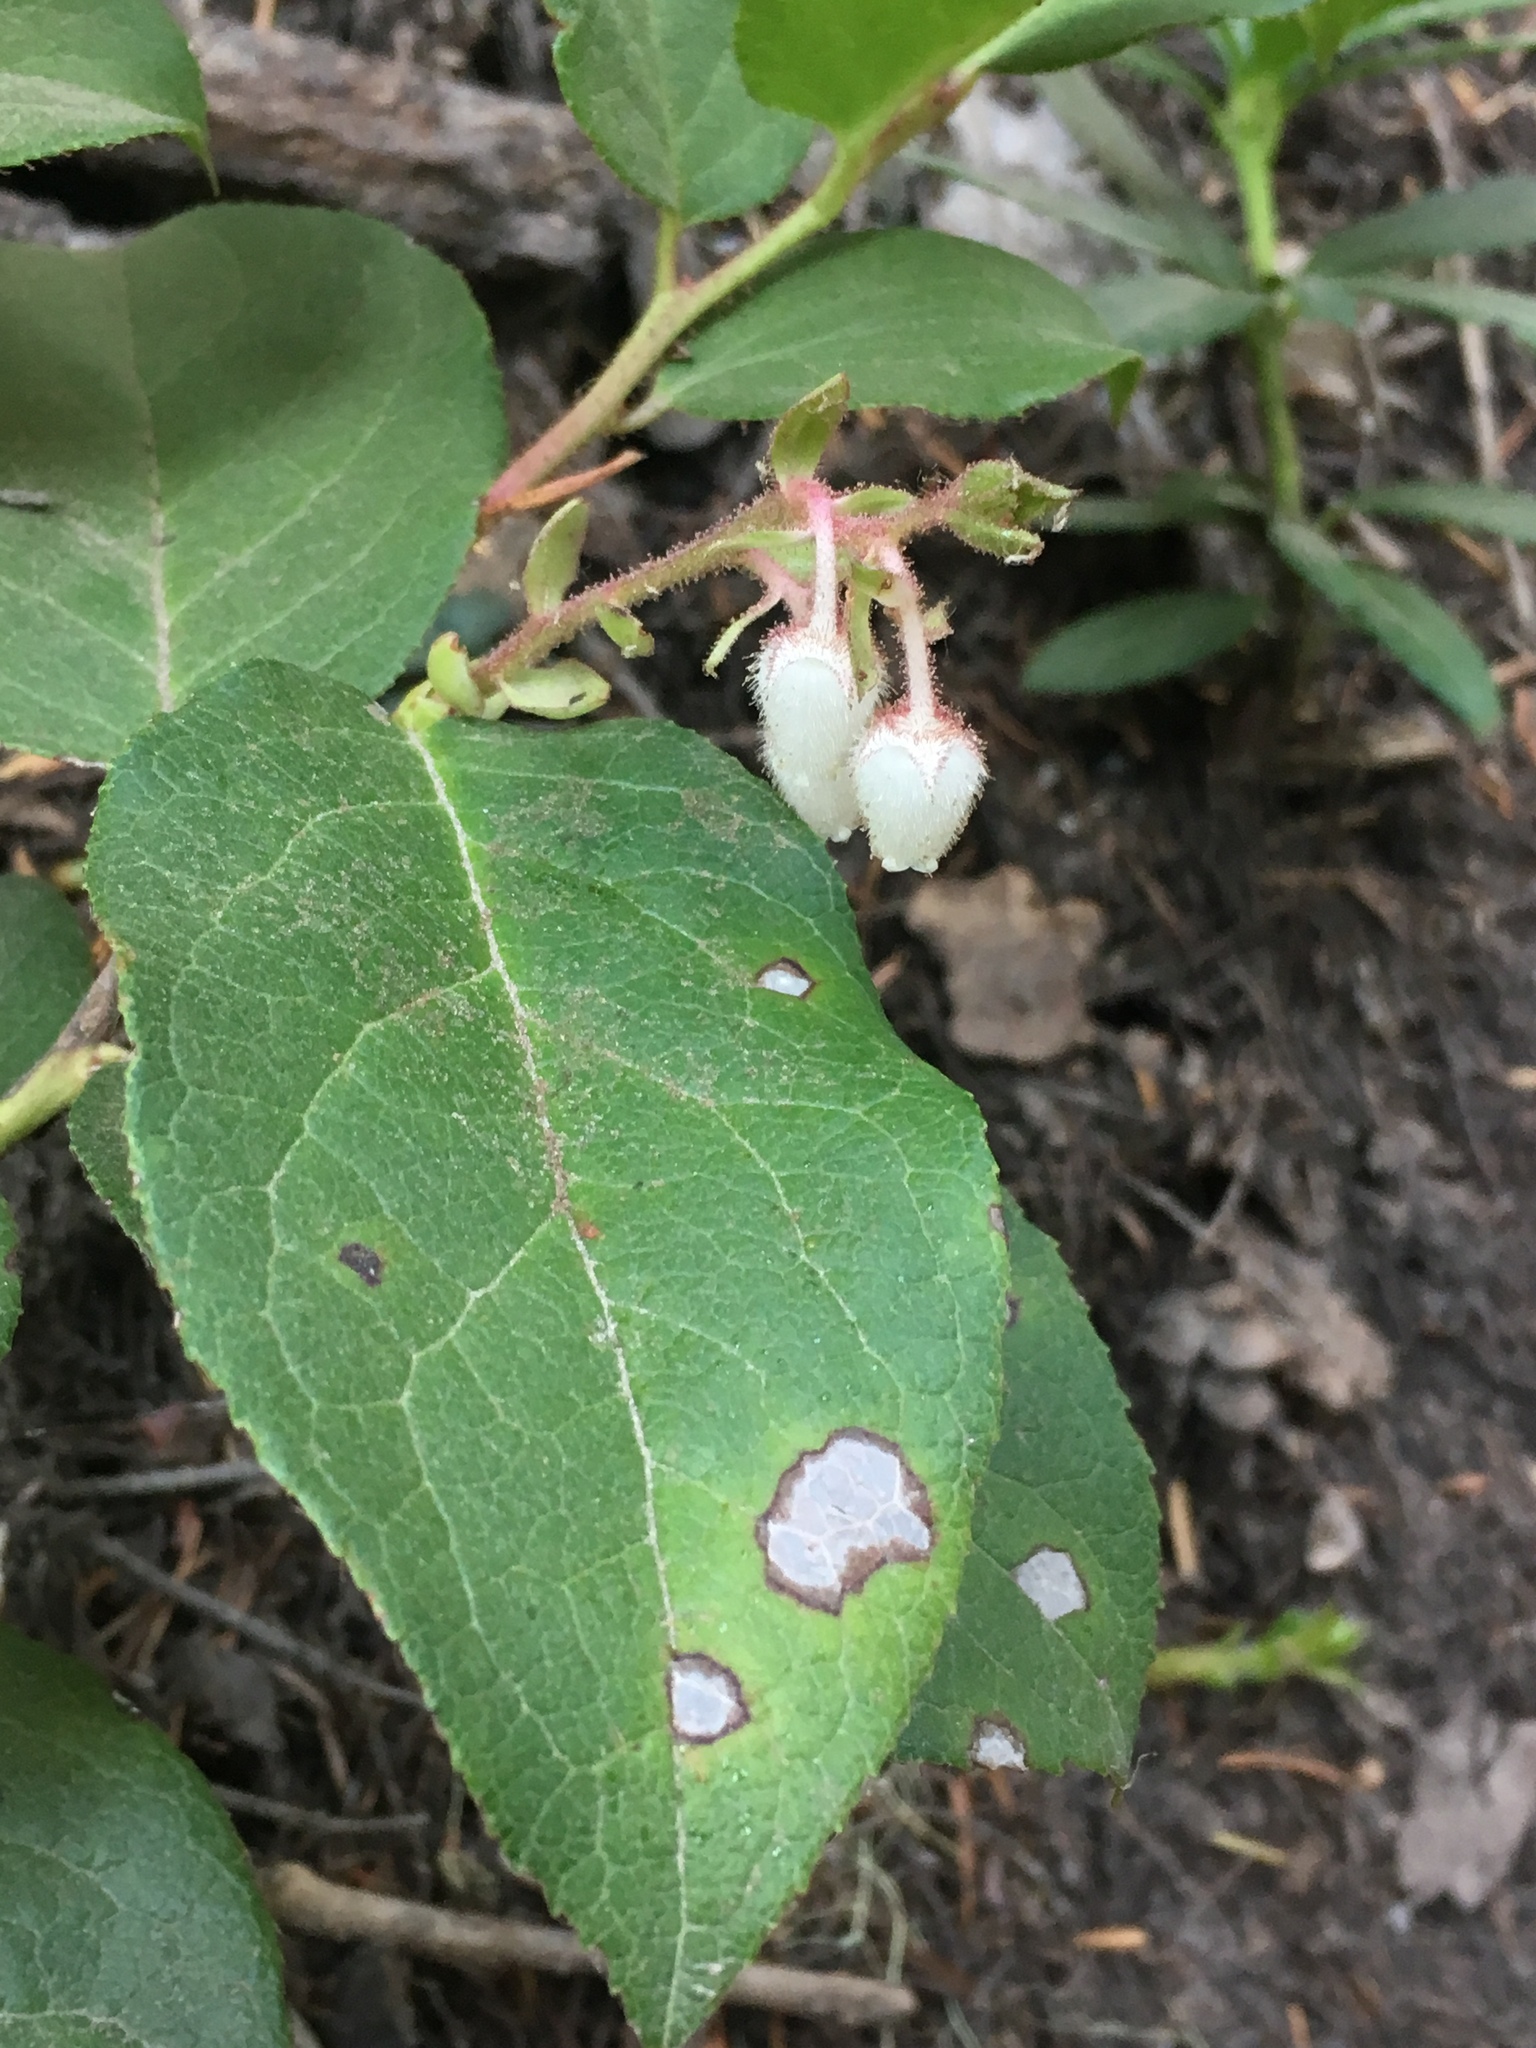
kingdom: Plantae
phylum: Tracheophyta
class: Magnoliopsida
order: Ericales
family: Ericaceae
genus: Gaultheria
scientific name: Gaultheria shallon
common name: Shallon
